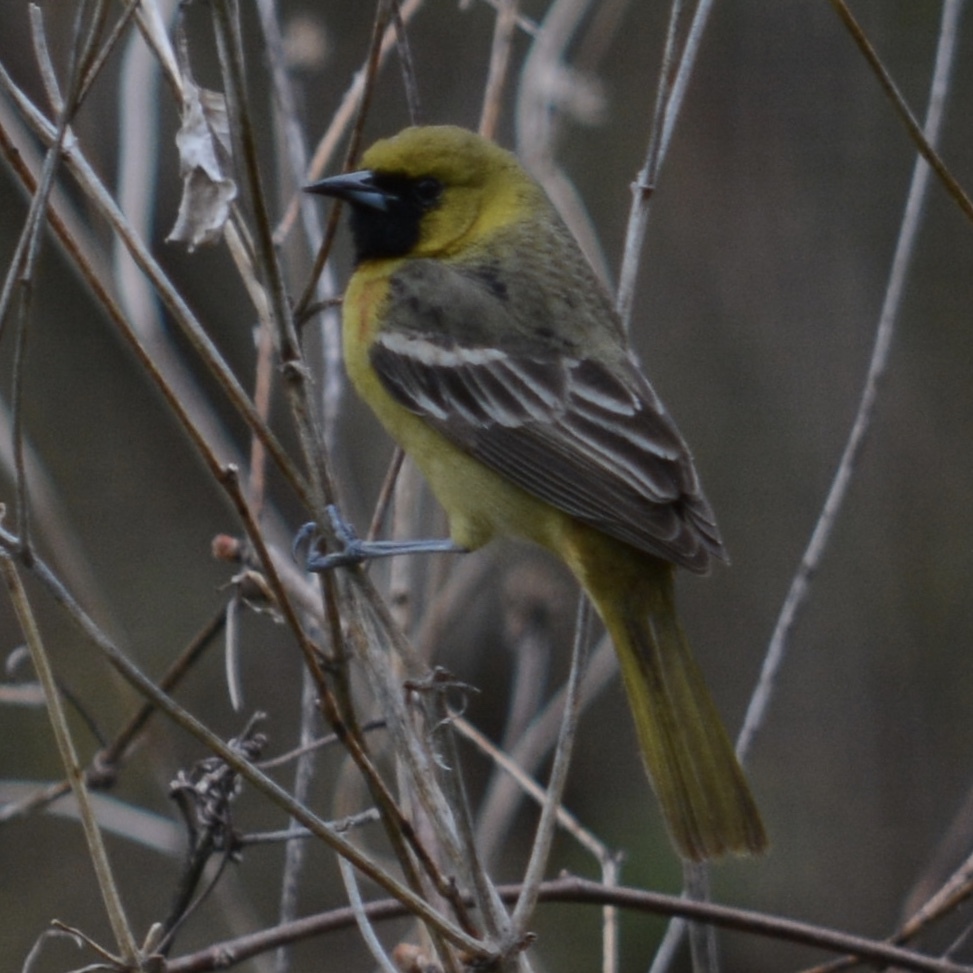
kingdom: Animalia
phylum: Chordata
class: Aves
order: Passeriformes
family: Icteridae
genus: Icterus
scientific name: Icterus spurius
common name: Orchard oriole
